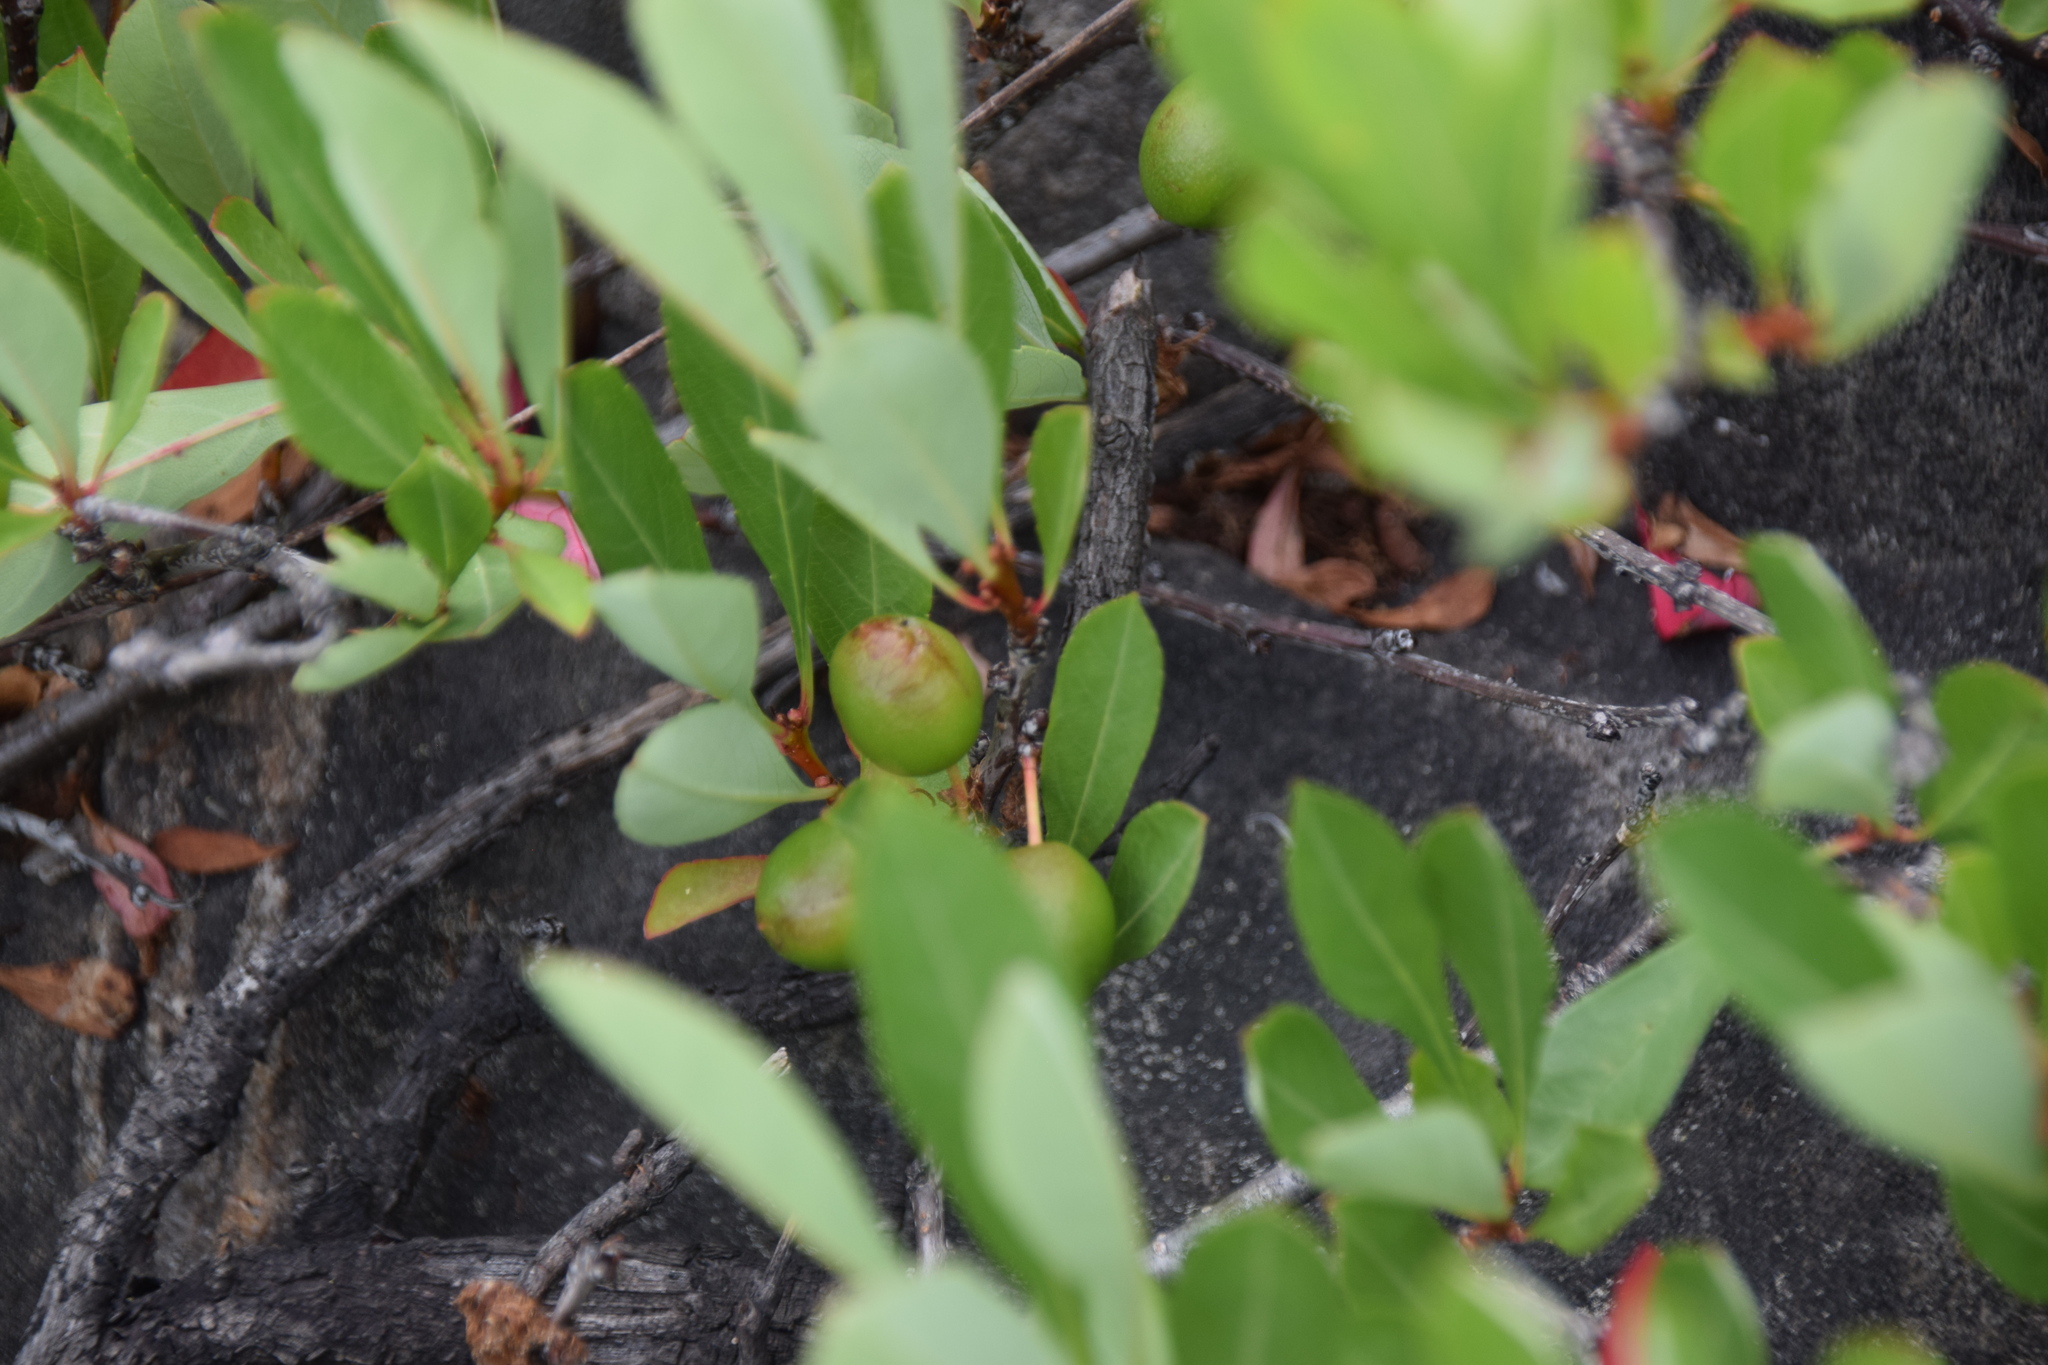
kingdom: Plantae
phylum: Tracheophyta
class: Magnoliopsida
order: Rosales
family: Rosaceae
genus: Prunus
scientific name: Prunus pumila
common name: Dwarf cherry
